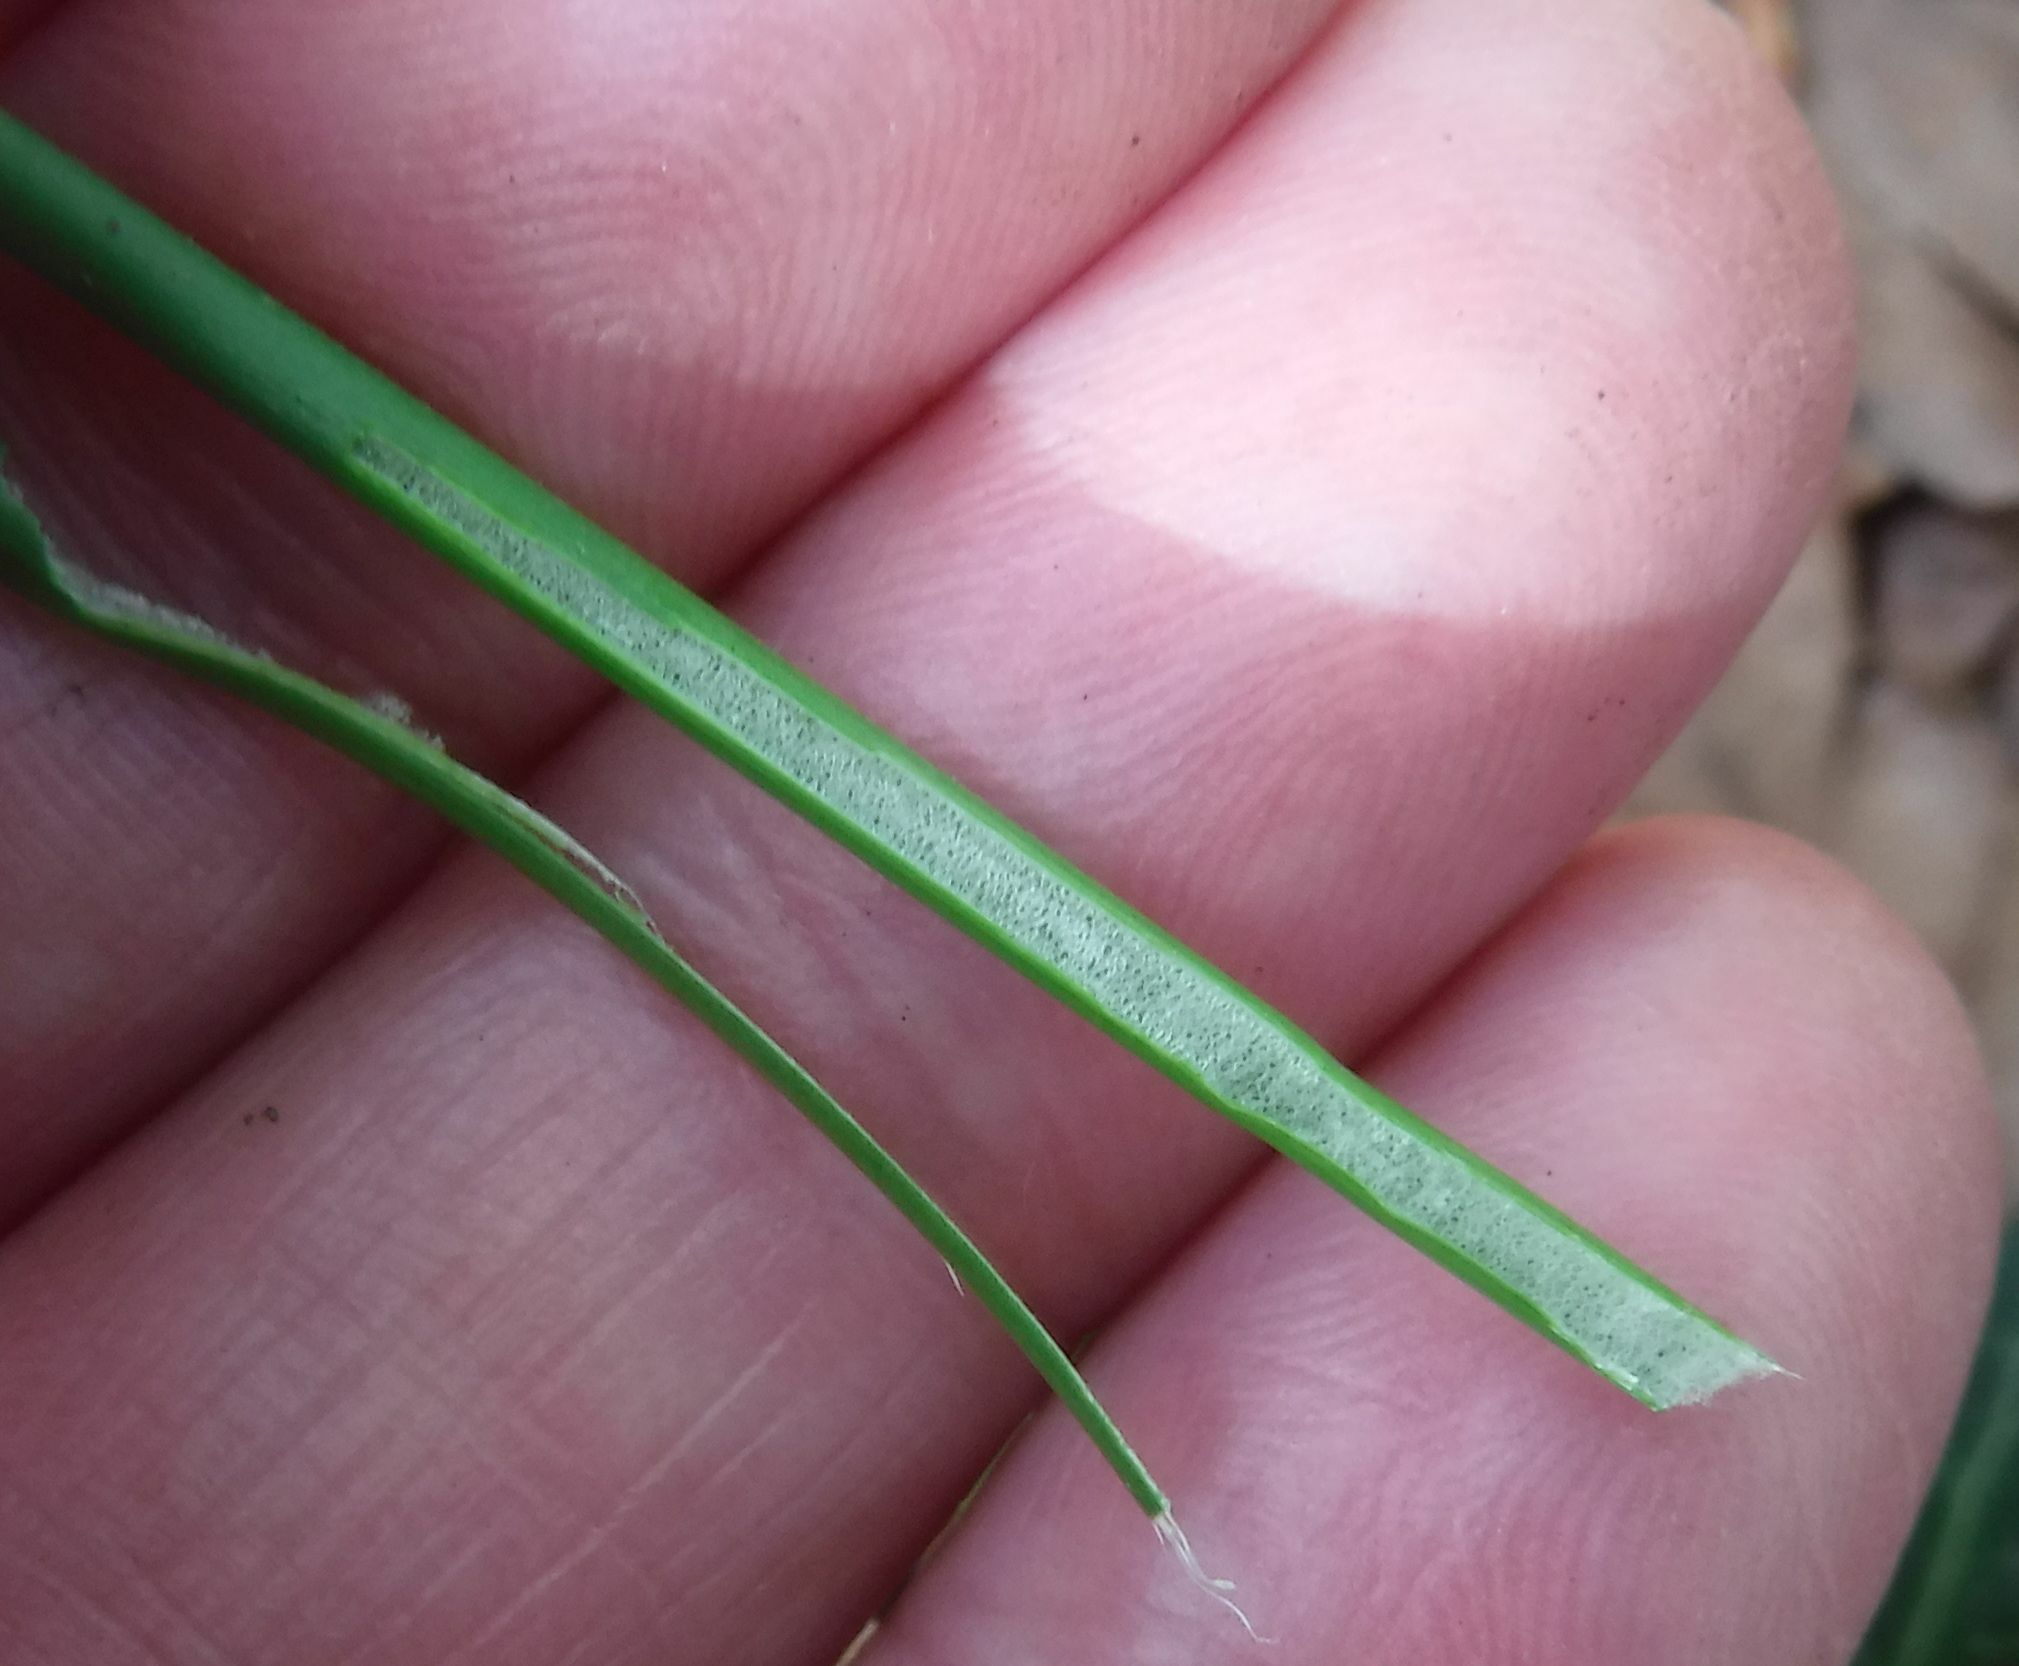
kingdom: Plantae
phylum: Tracheophyta
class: Liliopsida
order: Poales
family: Juncaceae
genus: Juncus
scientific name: Juncus effusus
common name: Soft rush
